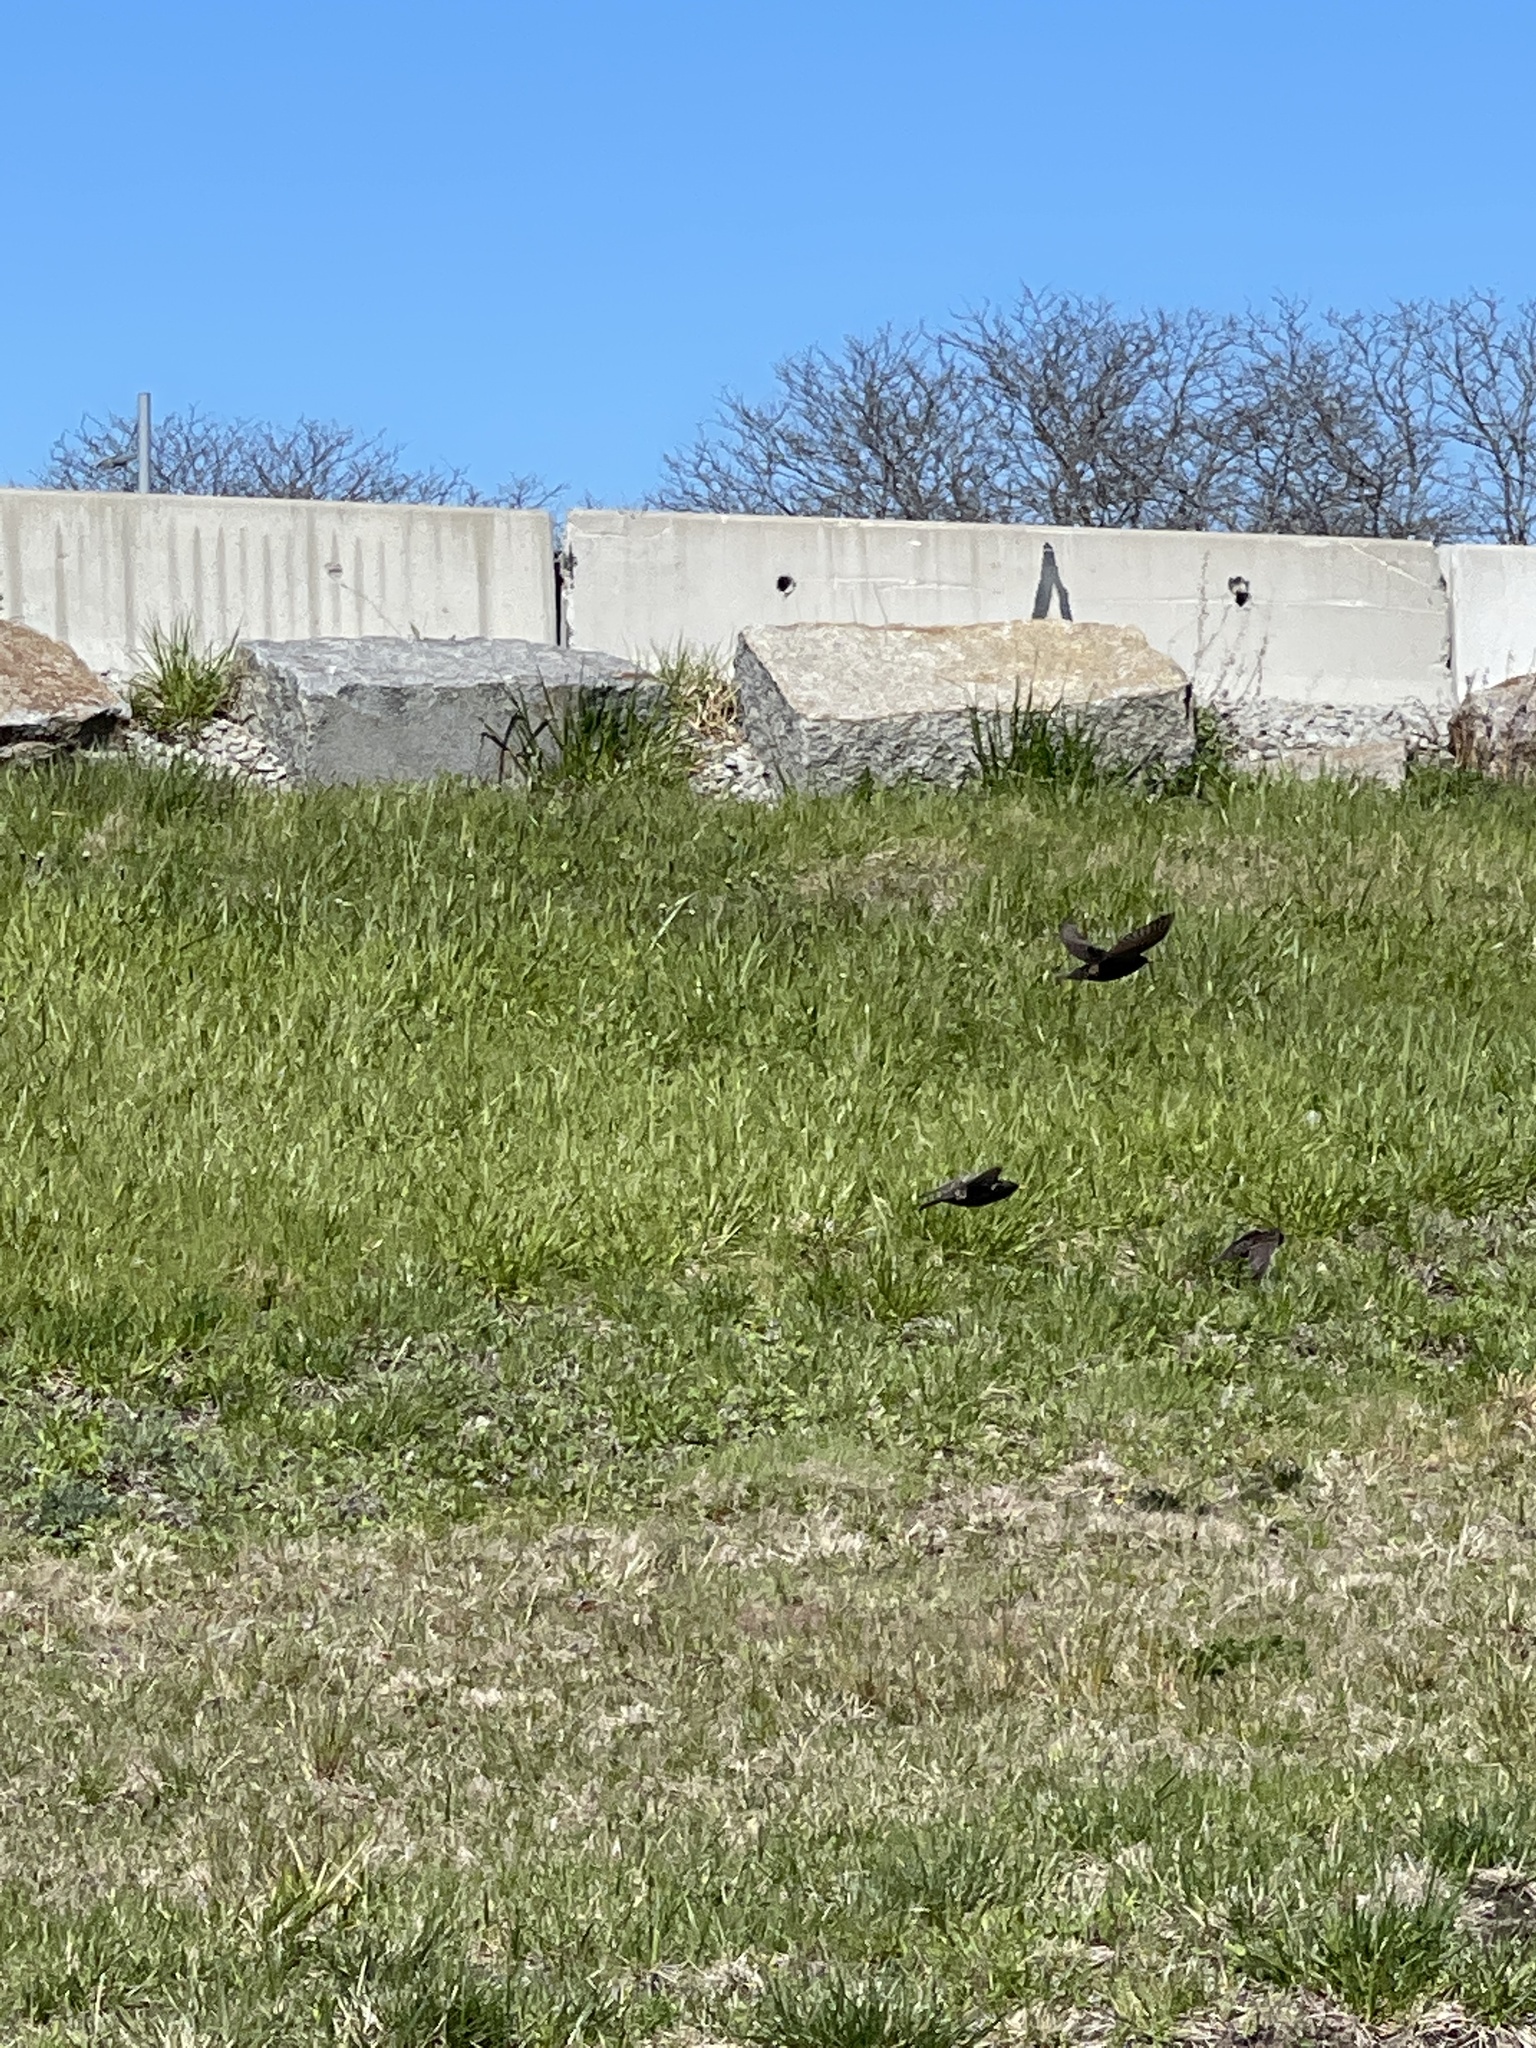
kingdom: Animalia
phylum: Chordata
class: Aves
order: Passeriformes
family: Sturnidae
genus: Sturnus
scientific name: Sturnus vulgaris
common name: Common starling
